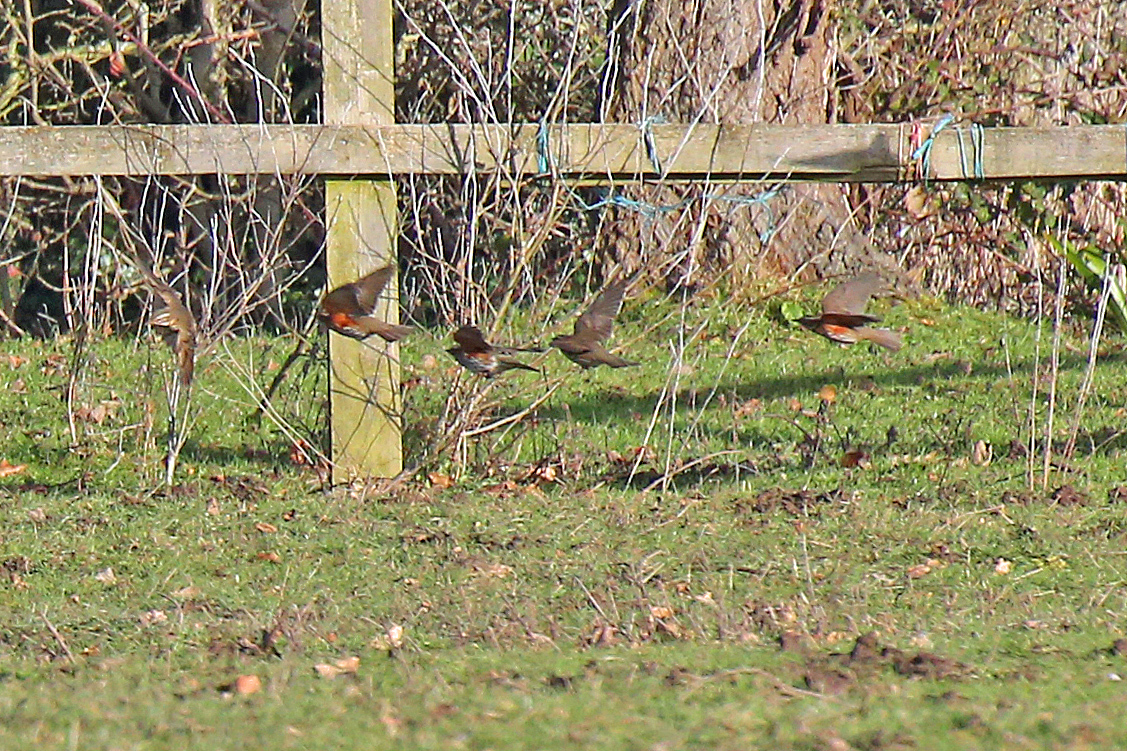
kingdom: Animalia
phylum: Chordata
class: Aves
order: Passeriformes
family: Turdidae
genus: Turdus
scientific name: Turdus iliacus
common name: Redwing
